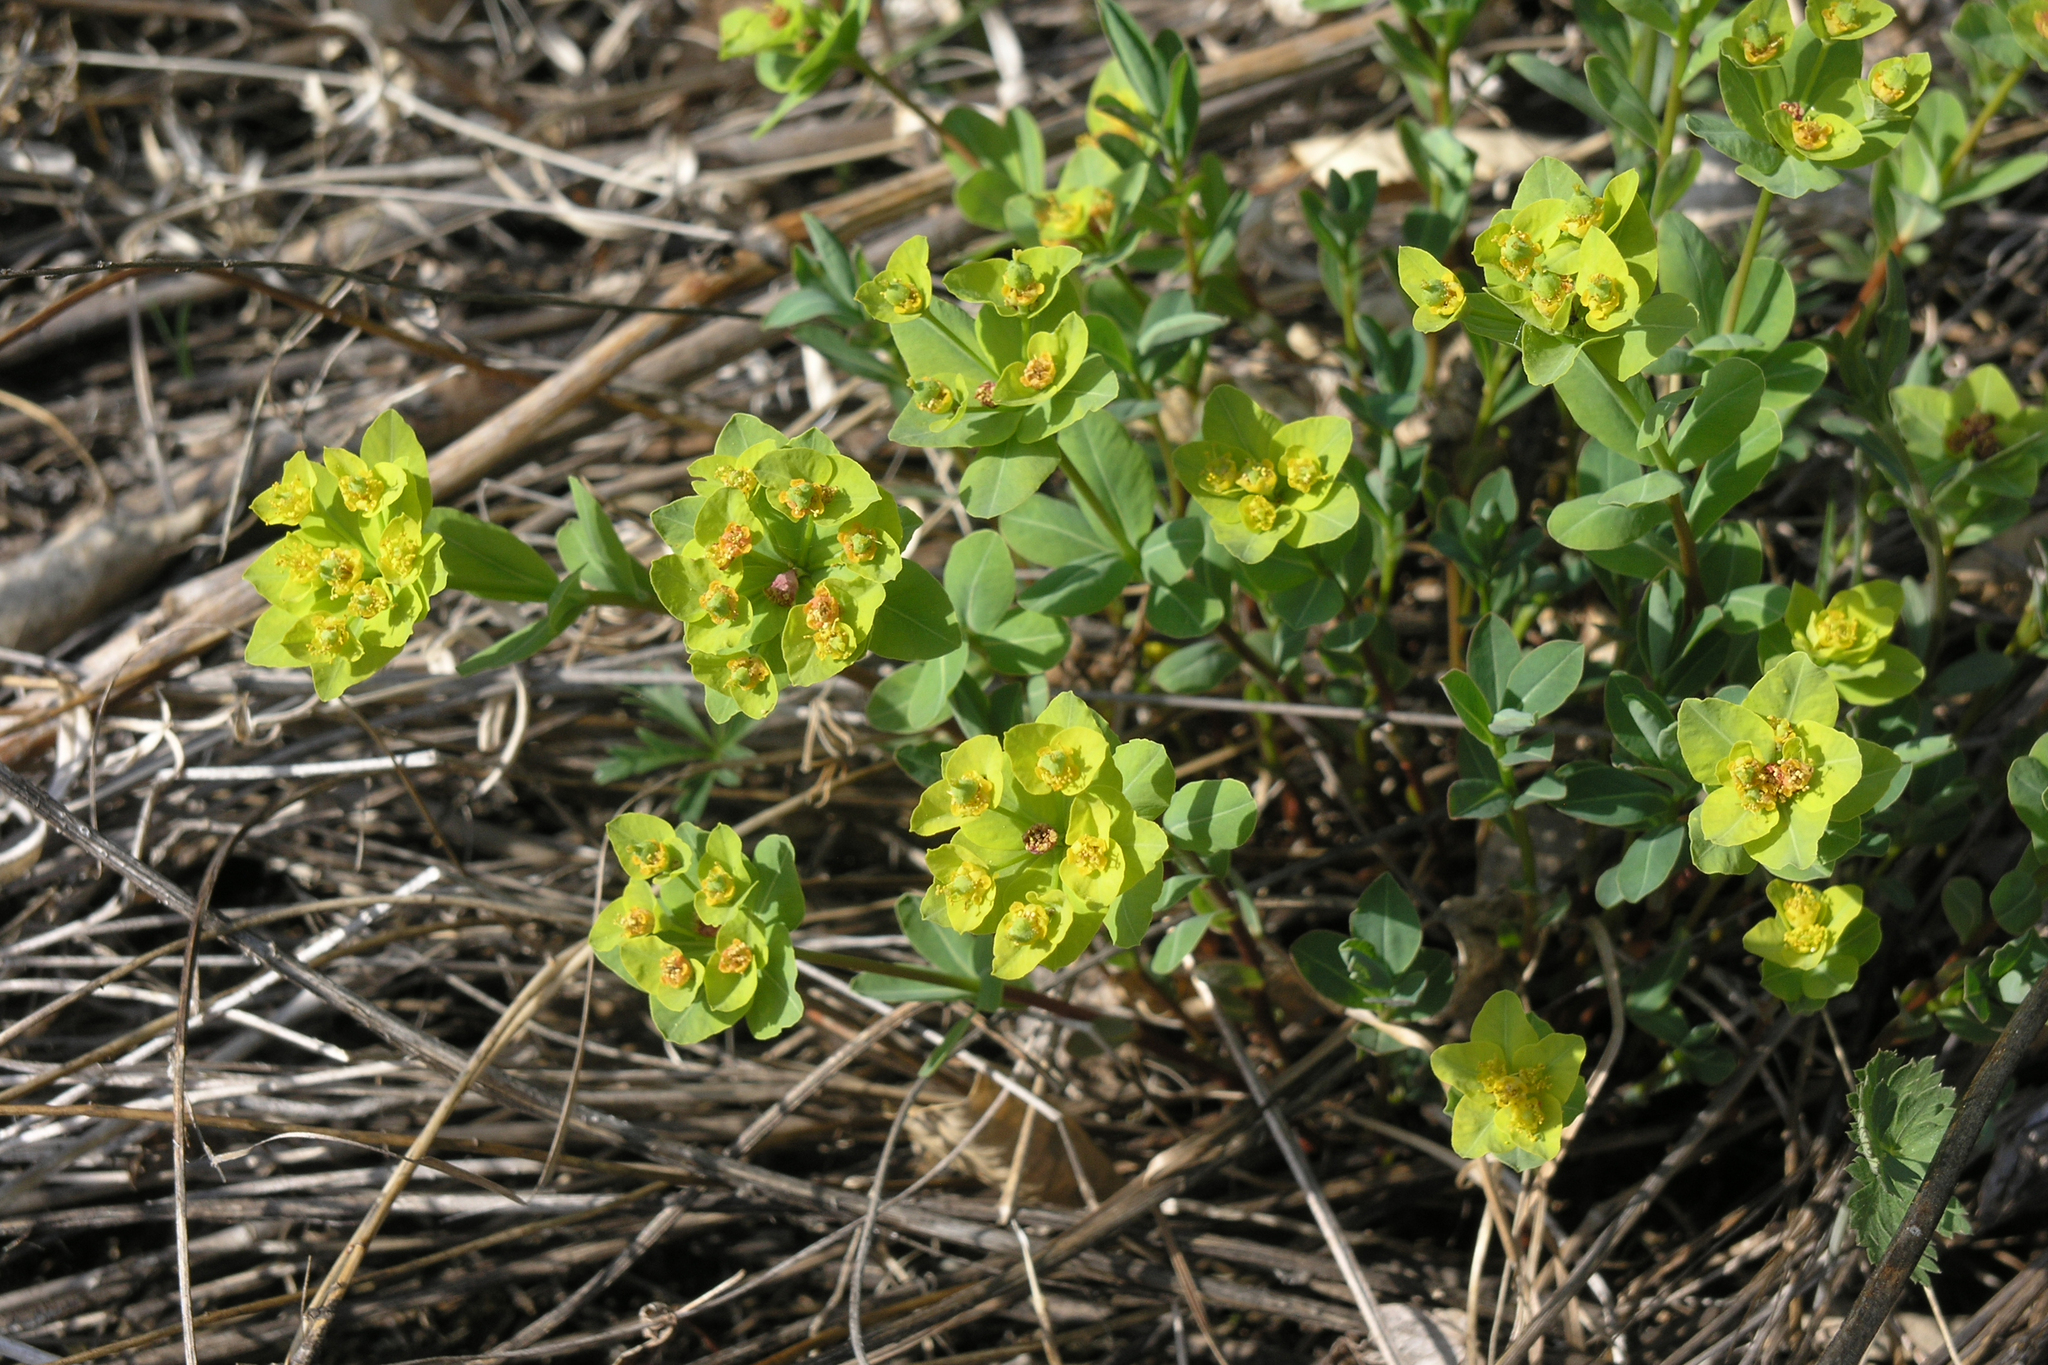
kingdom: Plantae
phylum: Tracheophyta
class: Magnoliopsida
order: Malpighiales
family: Euphorbiaceae
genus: Euphorbia
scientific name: Euphorbia altaica
